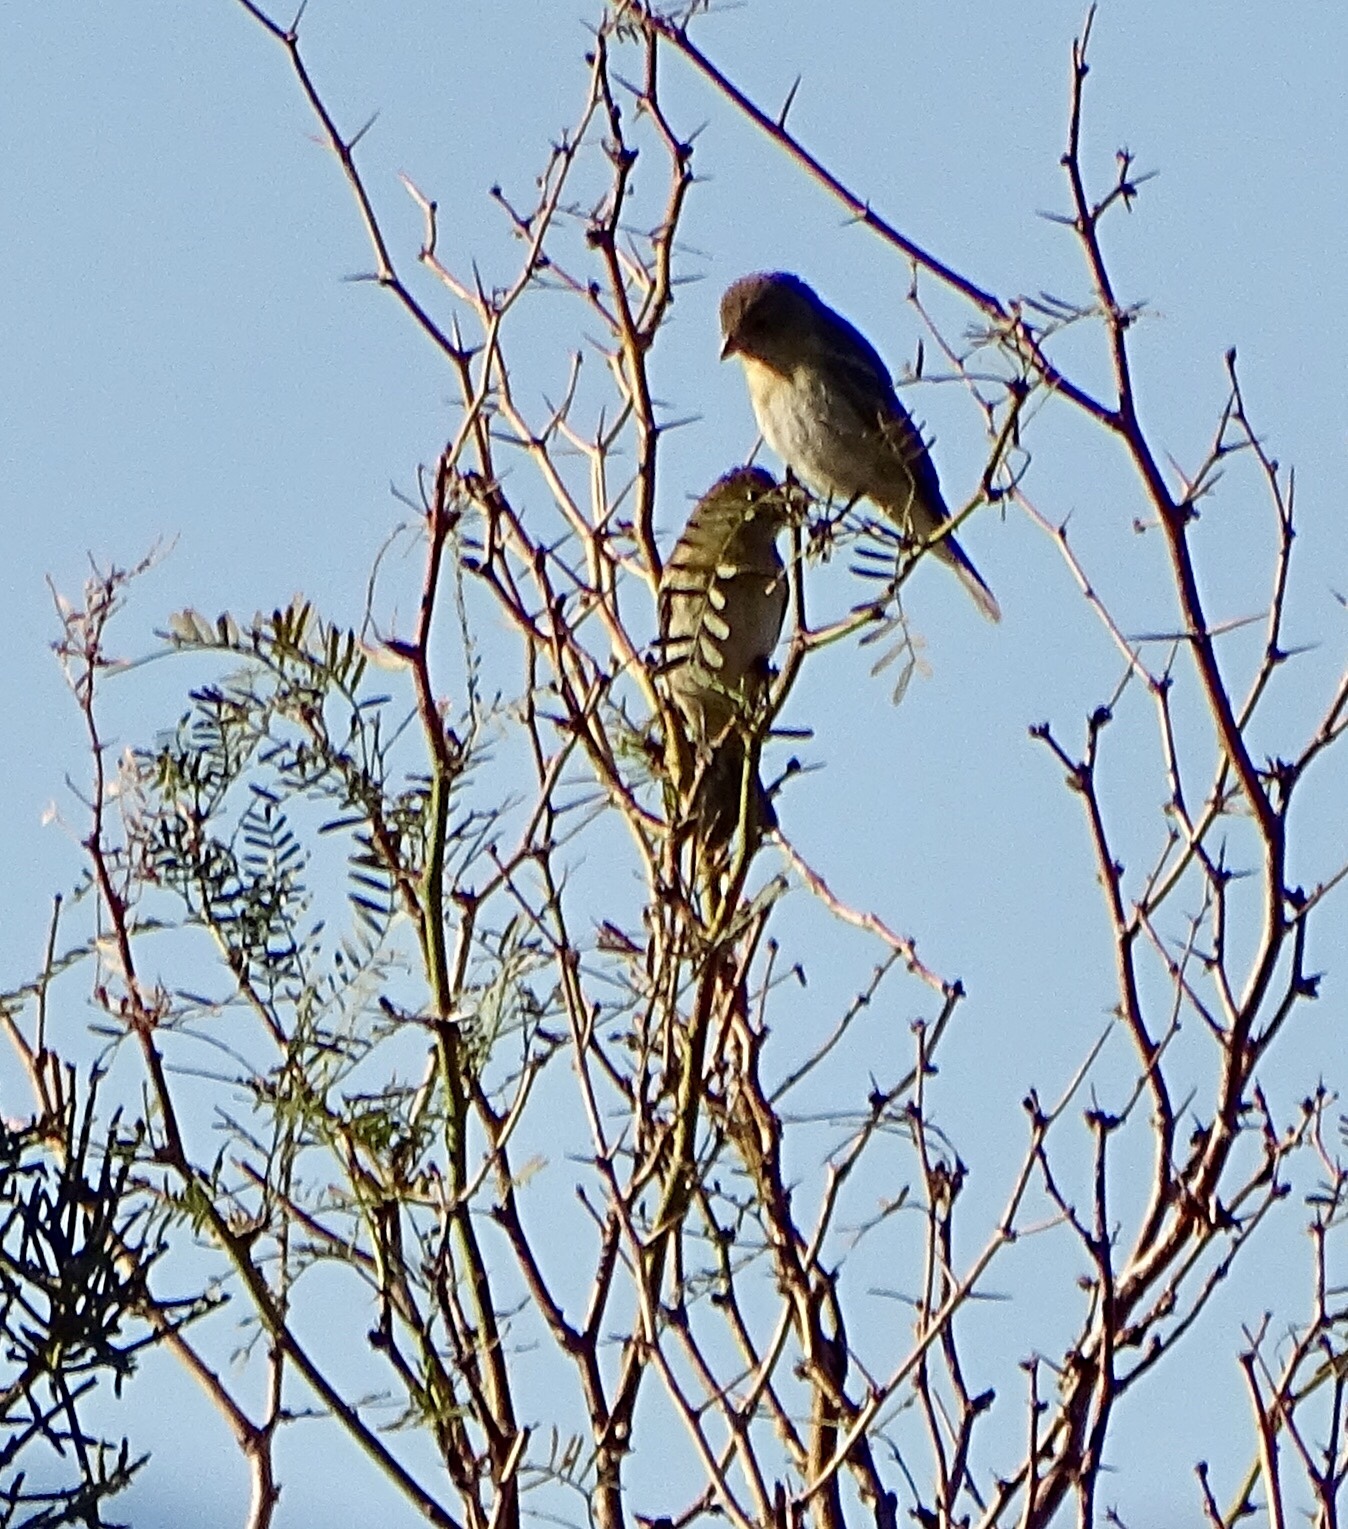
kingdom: Animalia
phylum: Chordata
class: Aves
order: Passeriformes
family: Cardinalidae
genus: Passerina
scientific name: Passerina amoena
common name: Lazuli bunting
